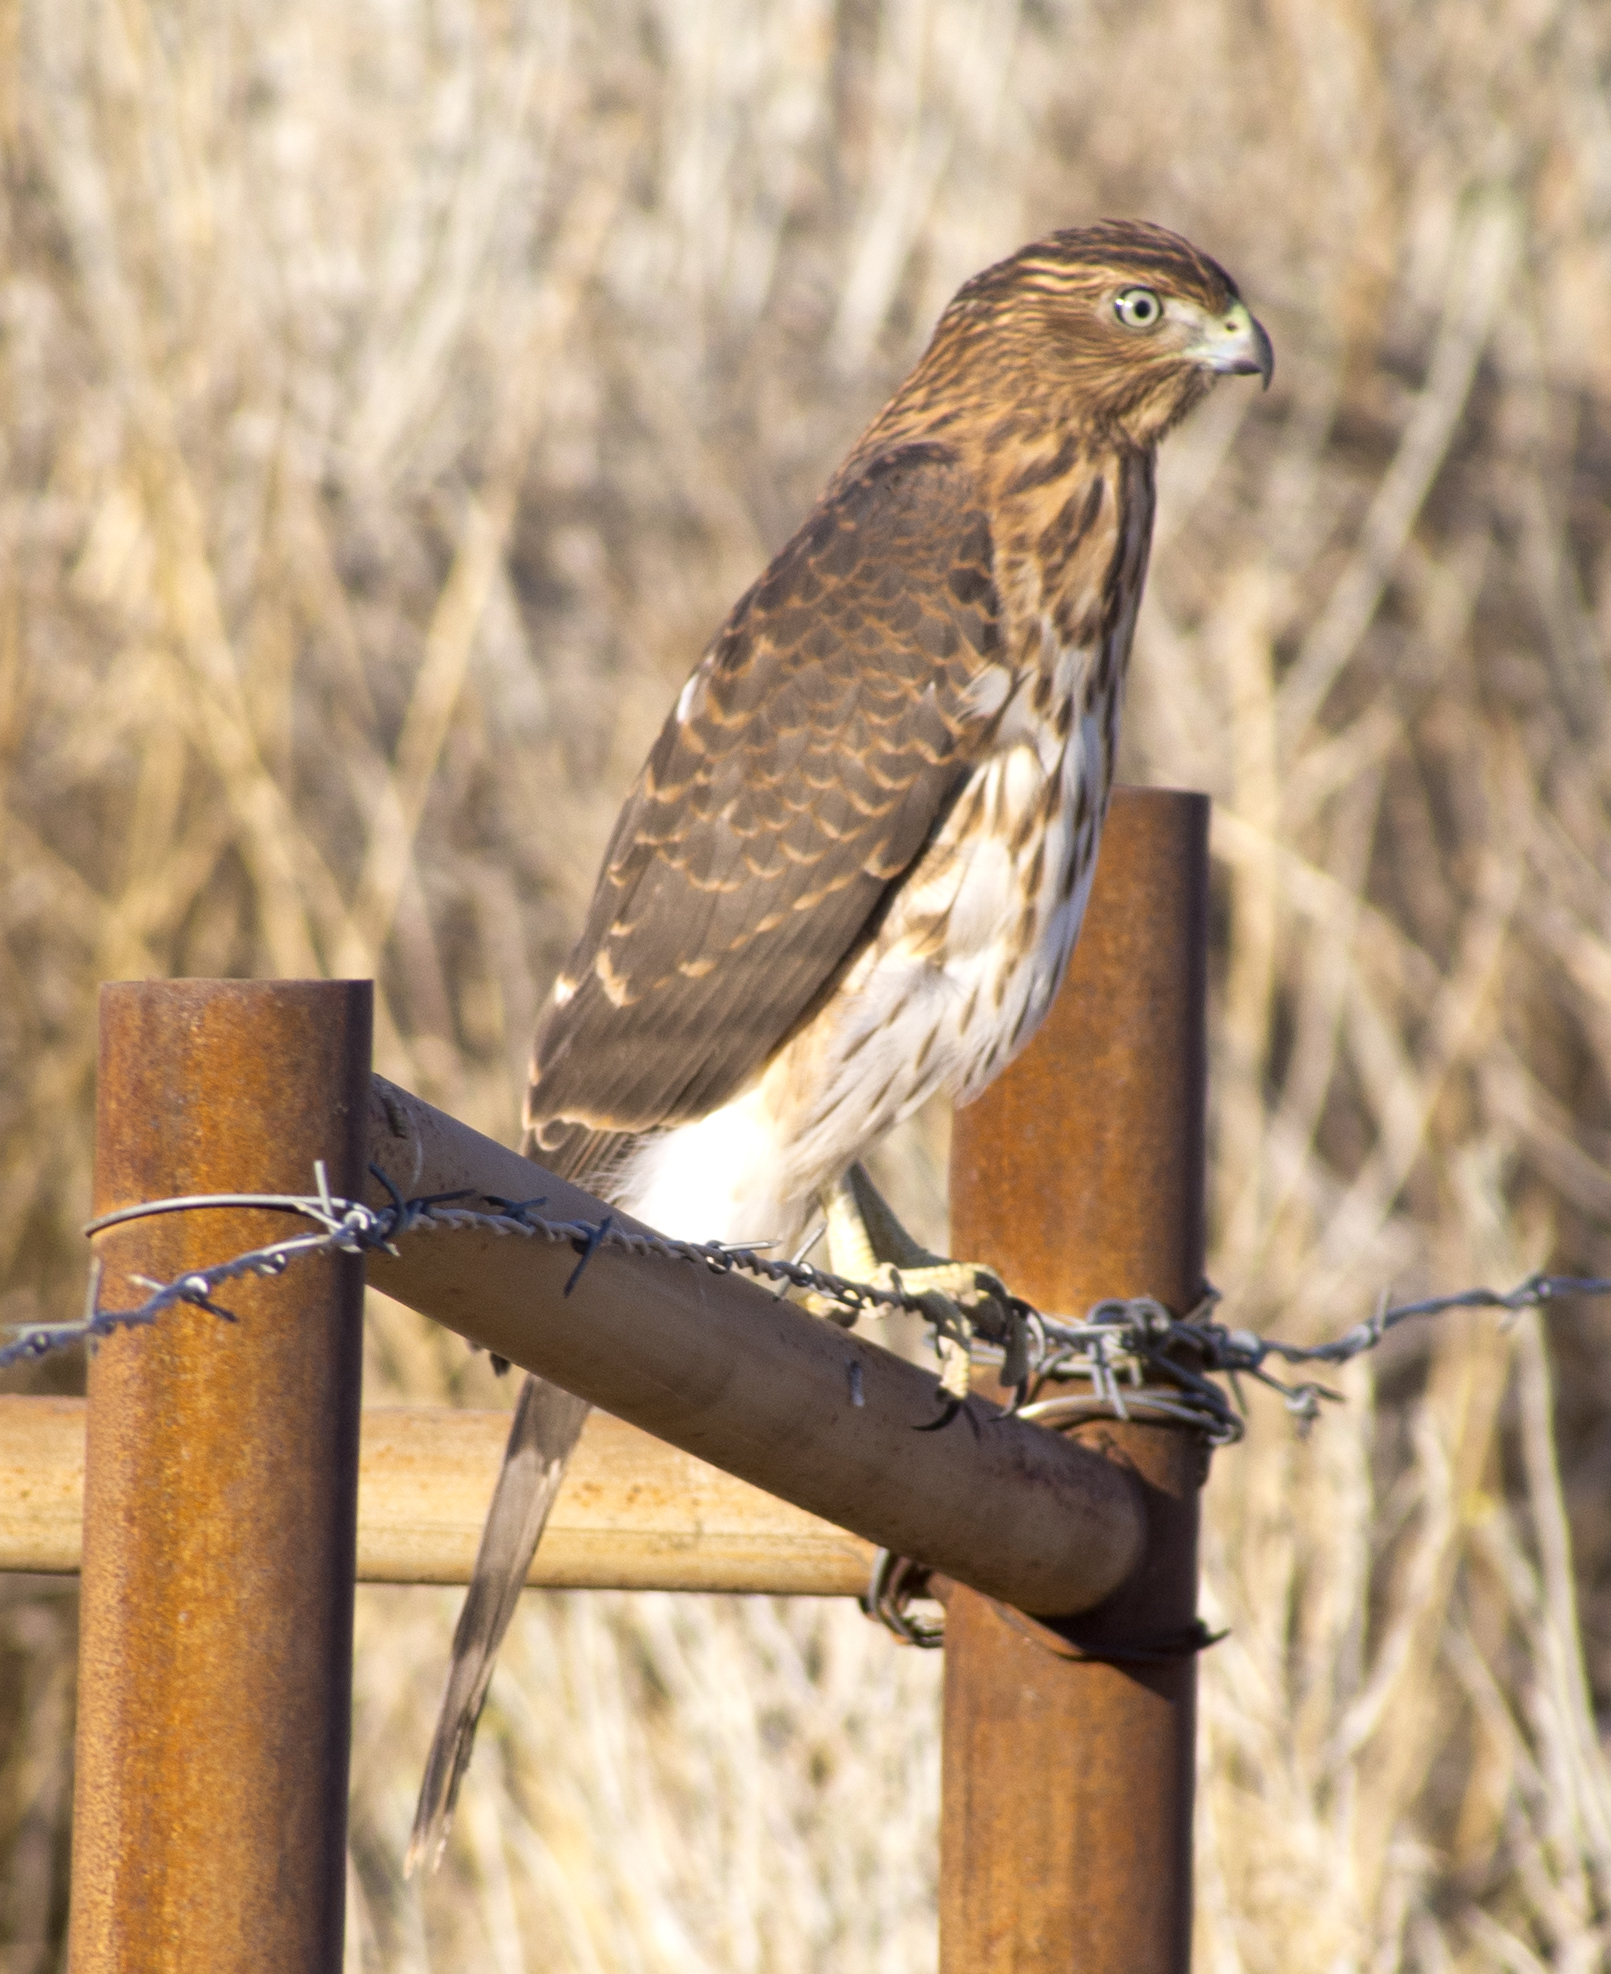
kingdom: Animalia
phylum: Chordata
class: Aves
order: Accipitriformes
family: Accipitridae
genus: Accipiter
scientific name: Accipiter cooperii
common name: Cooper's hawk
